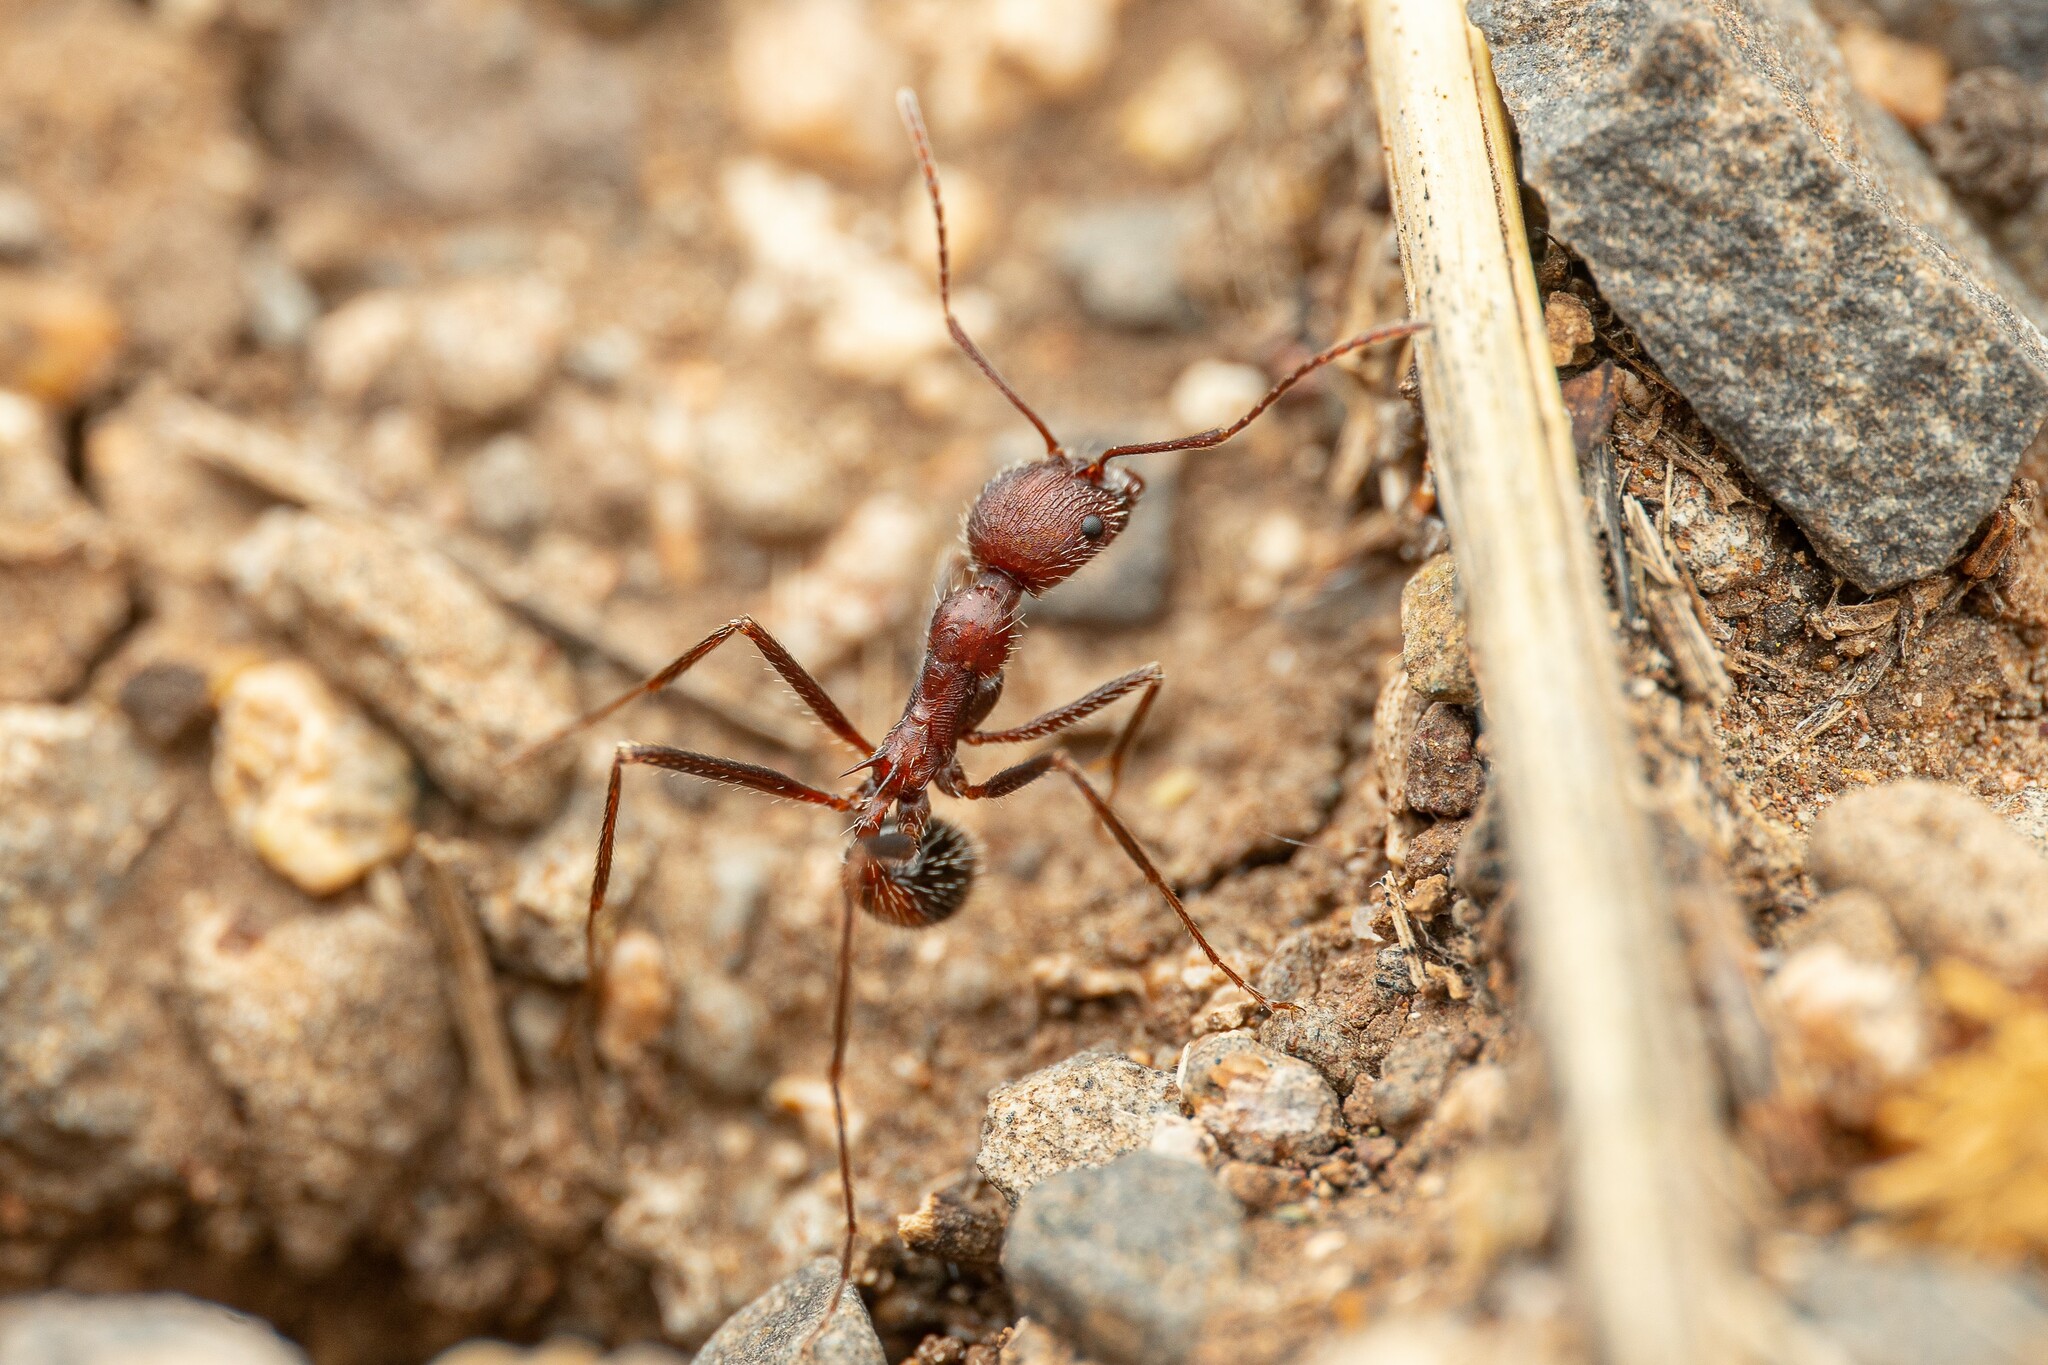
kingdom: Animalia
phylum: Arthropoda
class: Insecta
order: Hymenoptera
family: Formicidae
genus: Novomessor
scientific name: Novomessor albisetosa
